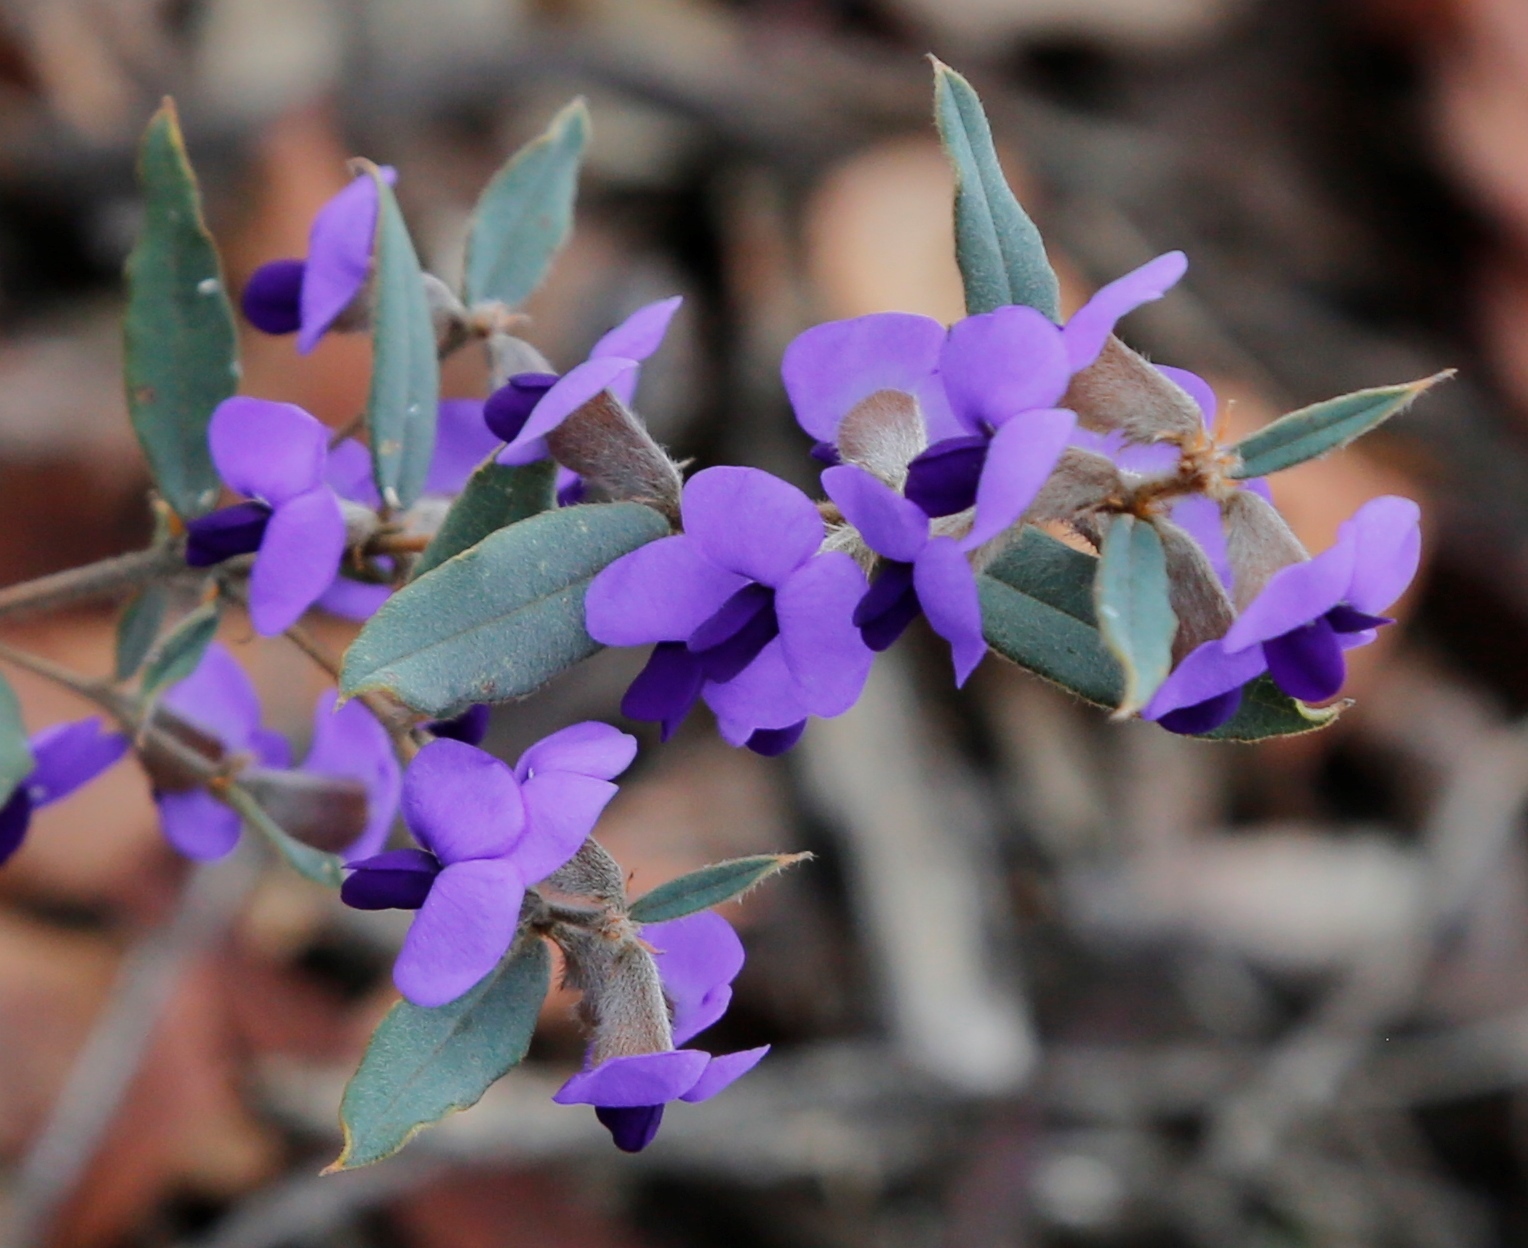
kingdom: Plantae
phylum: Tracheophyta
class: Magnoliopsida
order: Fabales
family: Fabaceae
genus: Hovea
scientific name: Hovea trisperma
